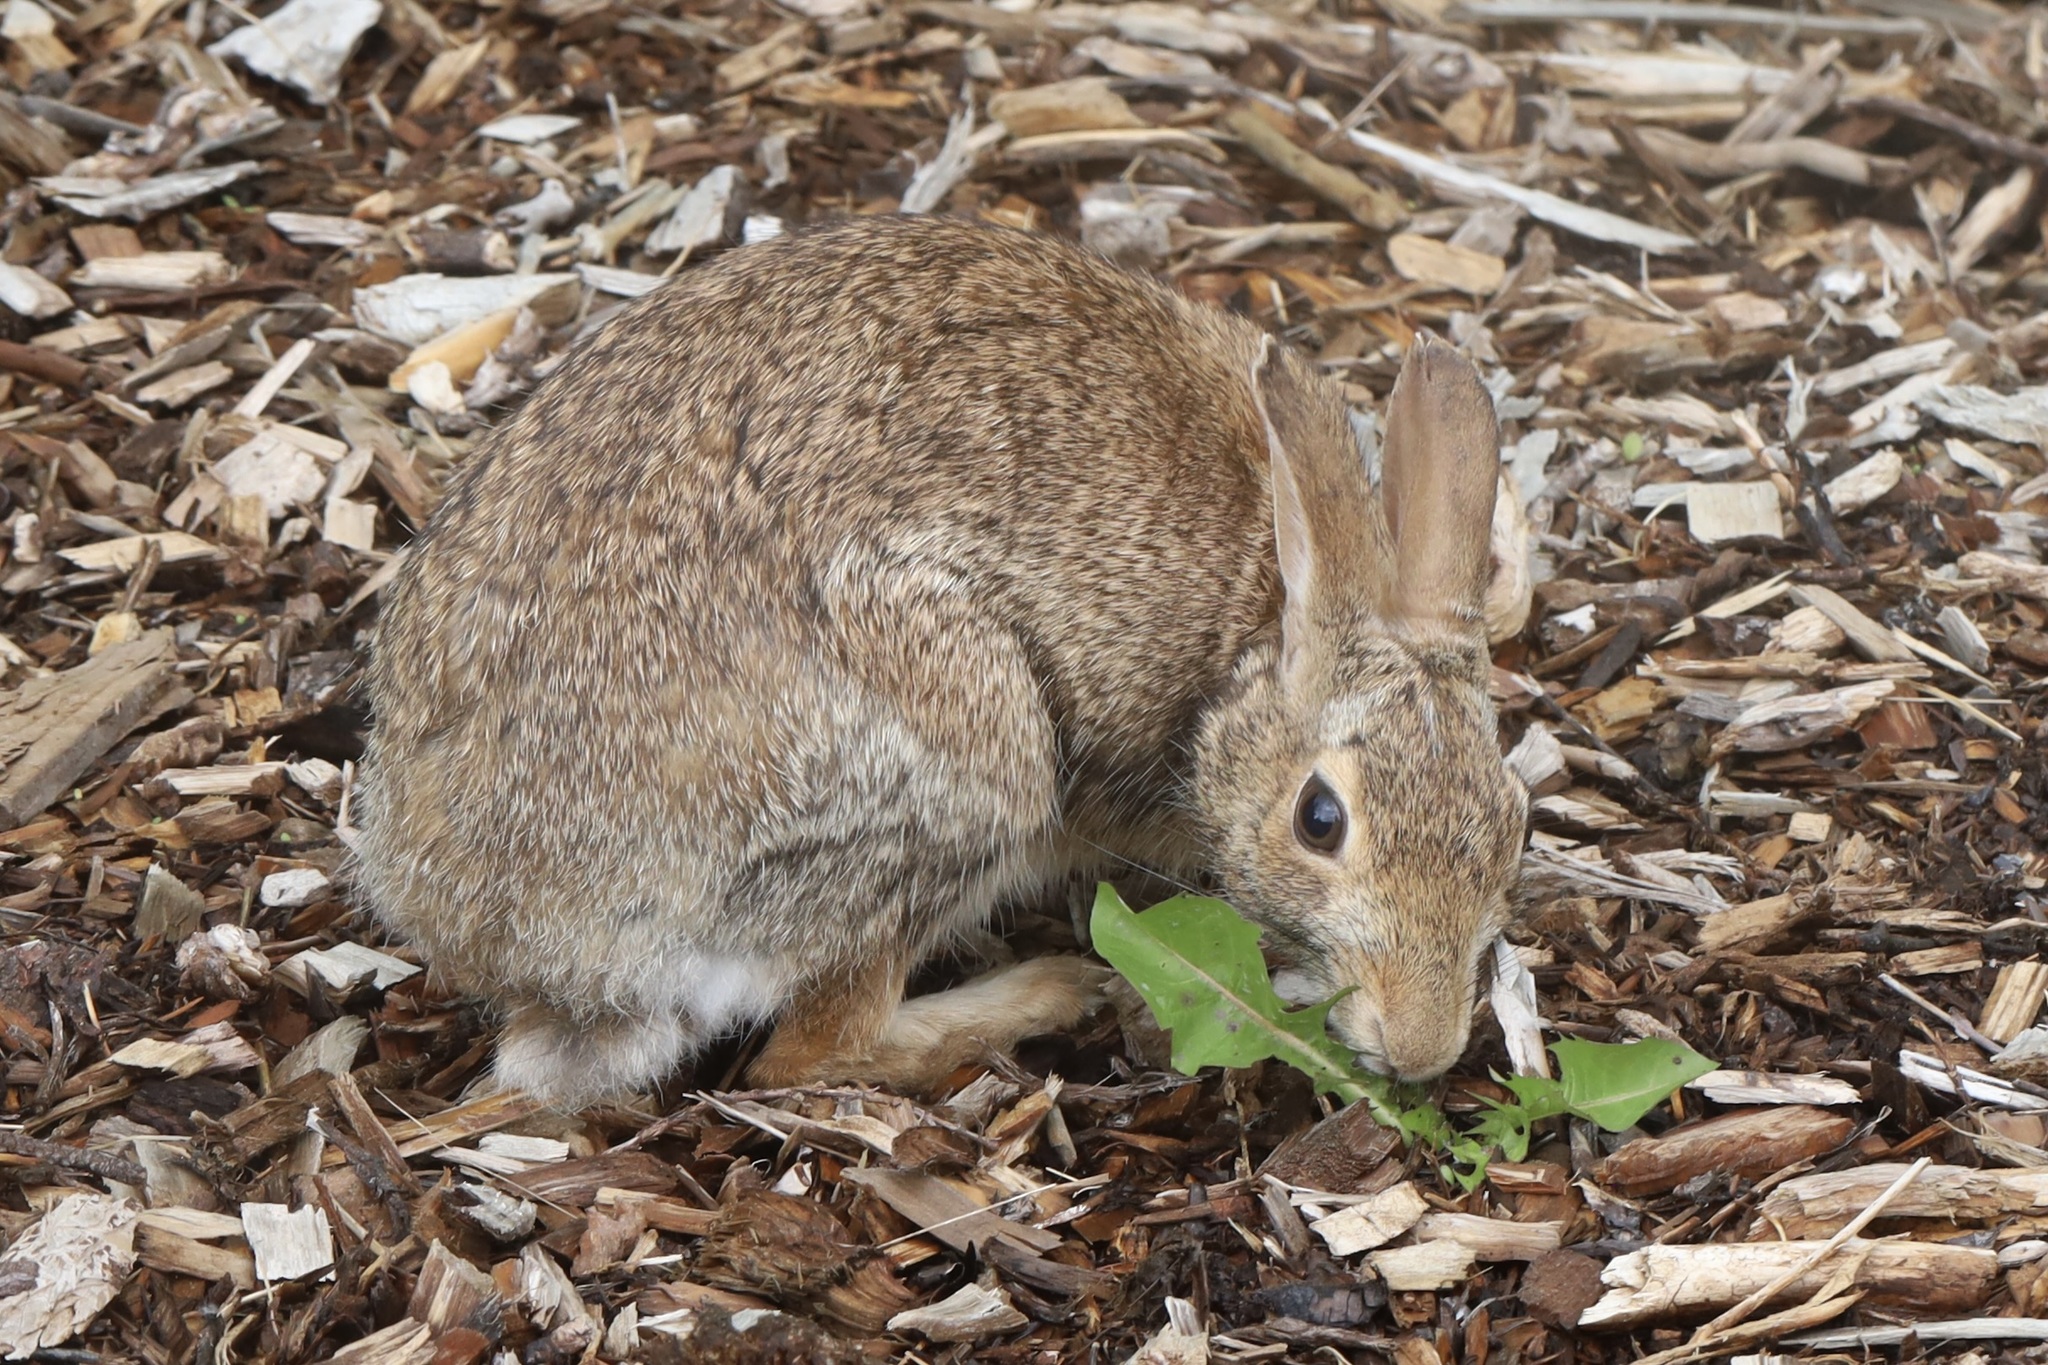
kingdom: Animalia
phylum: Chordata
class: Mammalia
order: Lagomorpha
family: Leporidae
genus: Sylvilagus
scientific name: Sylvilagus floridanus
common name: Eastern cottontail
